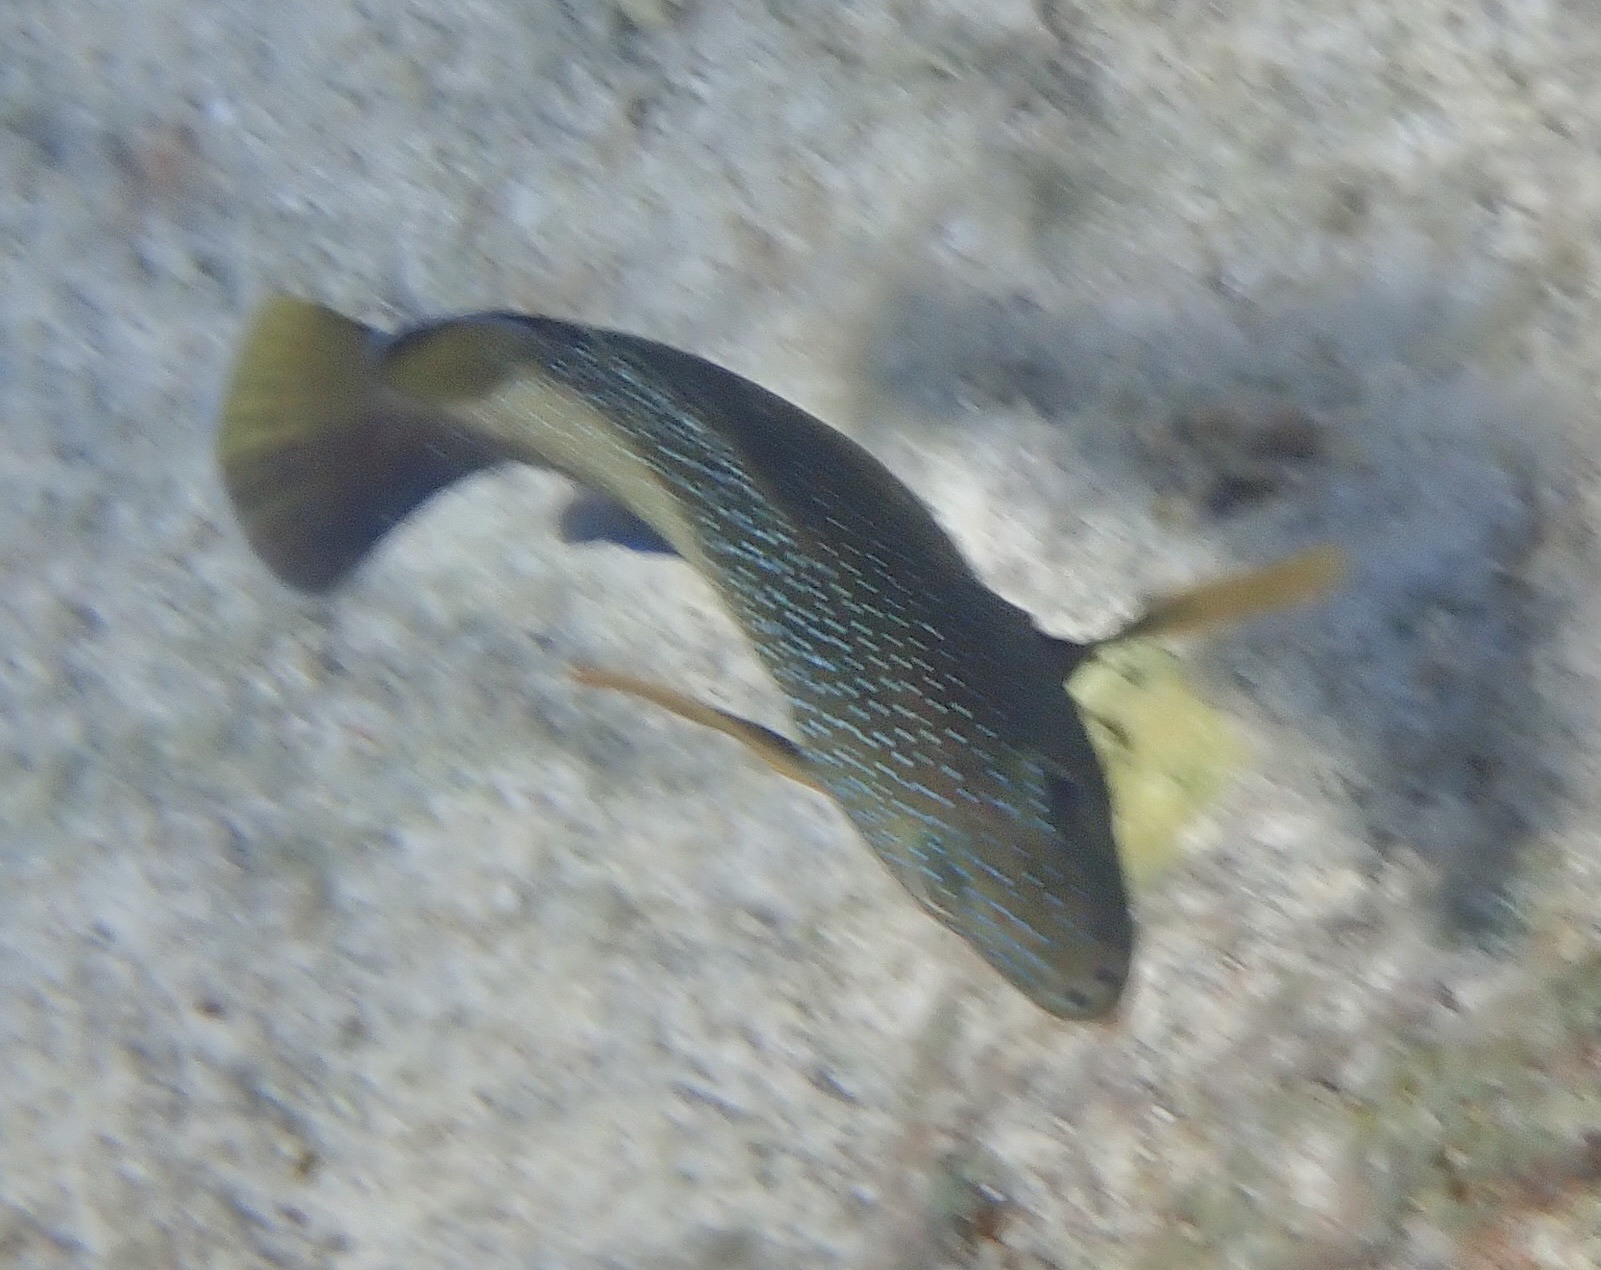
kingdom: Animalia
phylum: Chordata
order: Perciformes
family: Serranidae
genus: Cephalopholis
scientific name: Cephalopholis fulva
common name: Butterfish
